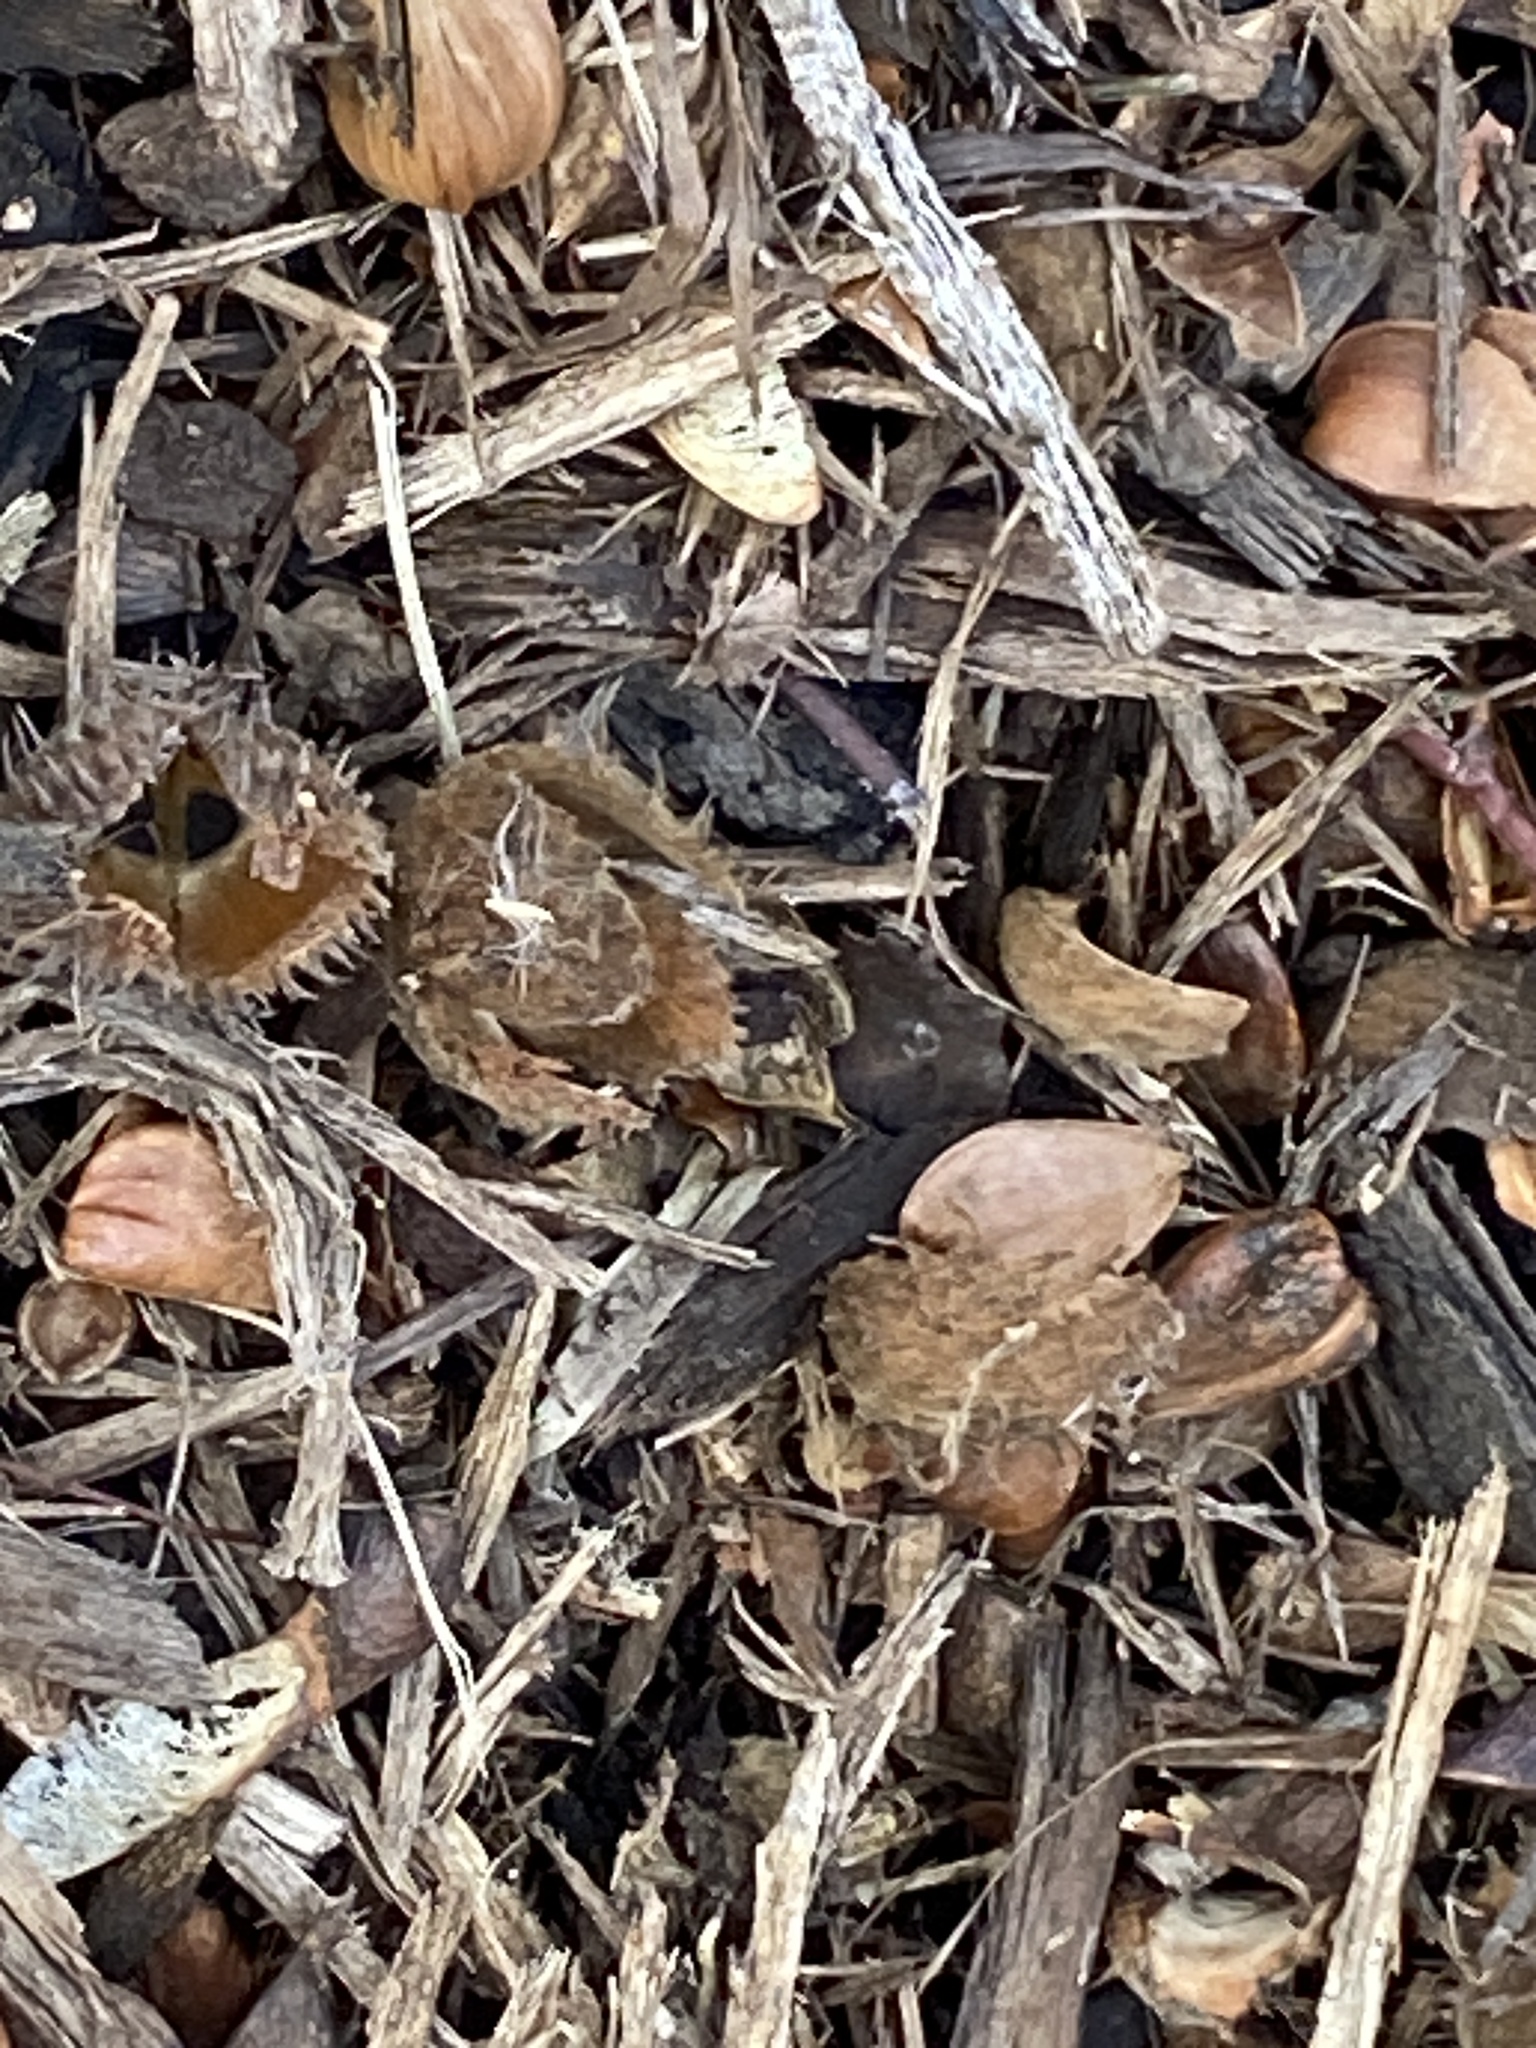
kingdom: Plantae
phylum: Tracheophyta
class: Magnoliopsida
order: Fagales
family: Fagaceae
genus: Fagus
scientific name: Fagus grandifolia
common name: American beech
